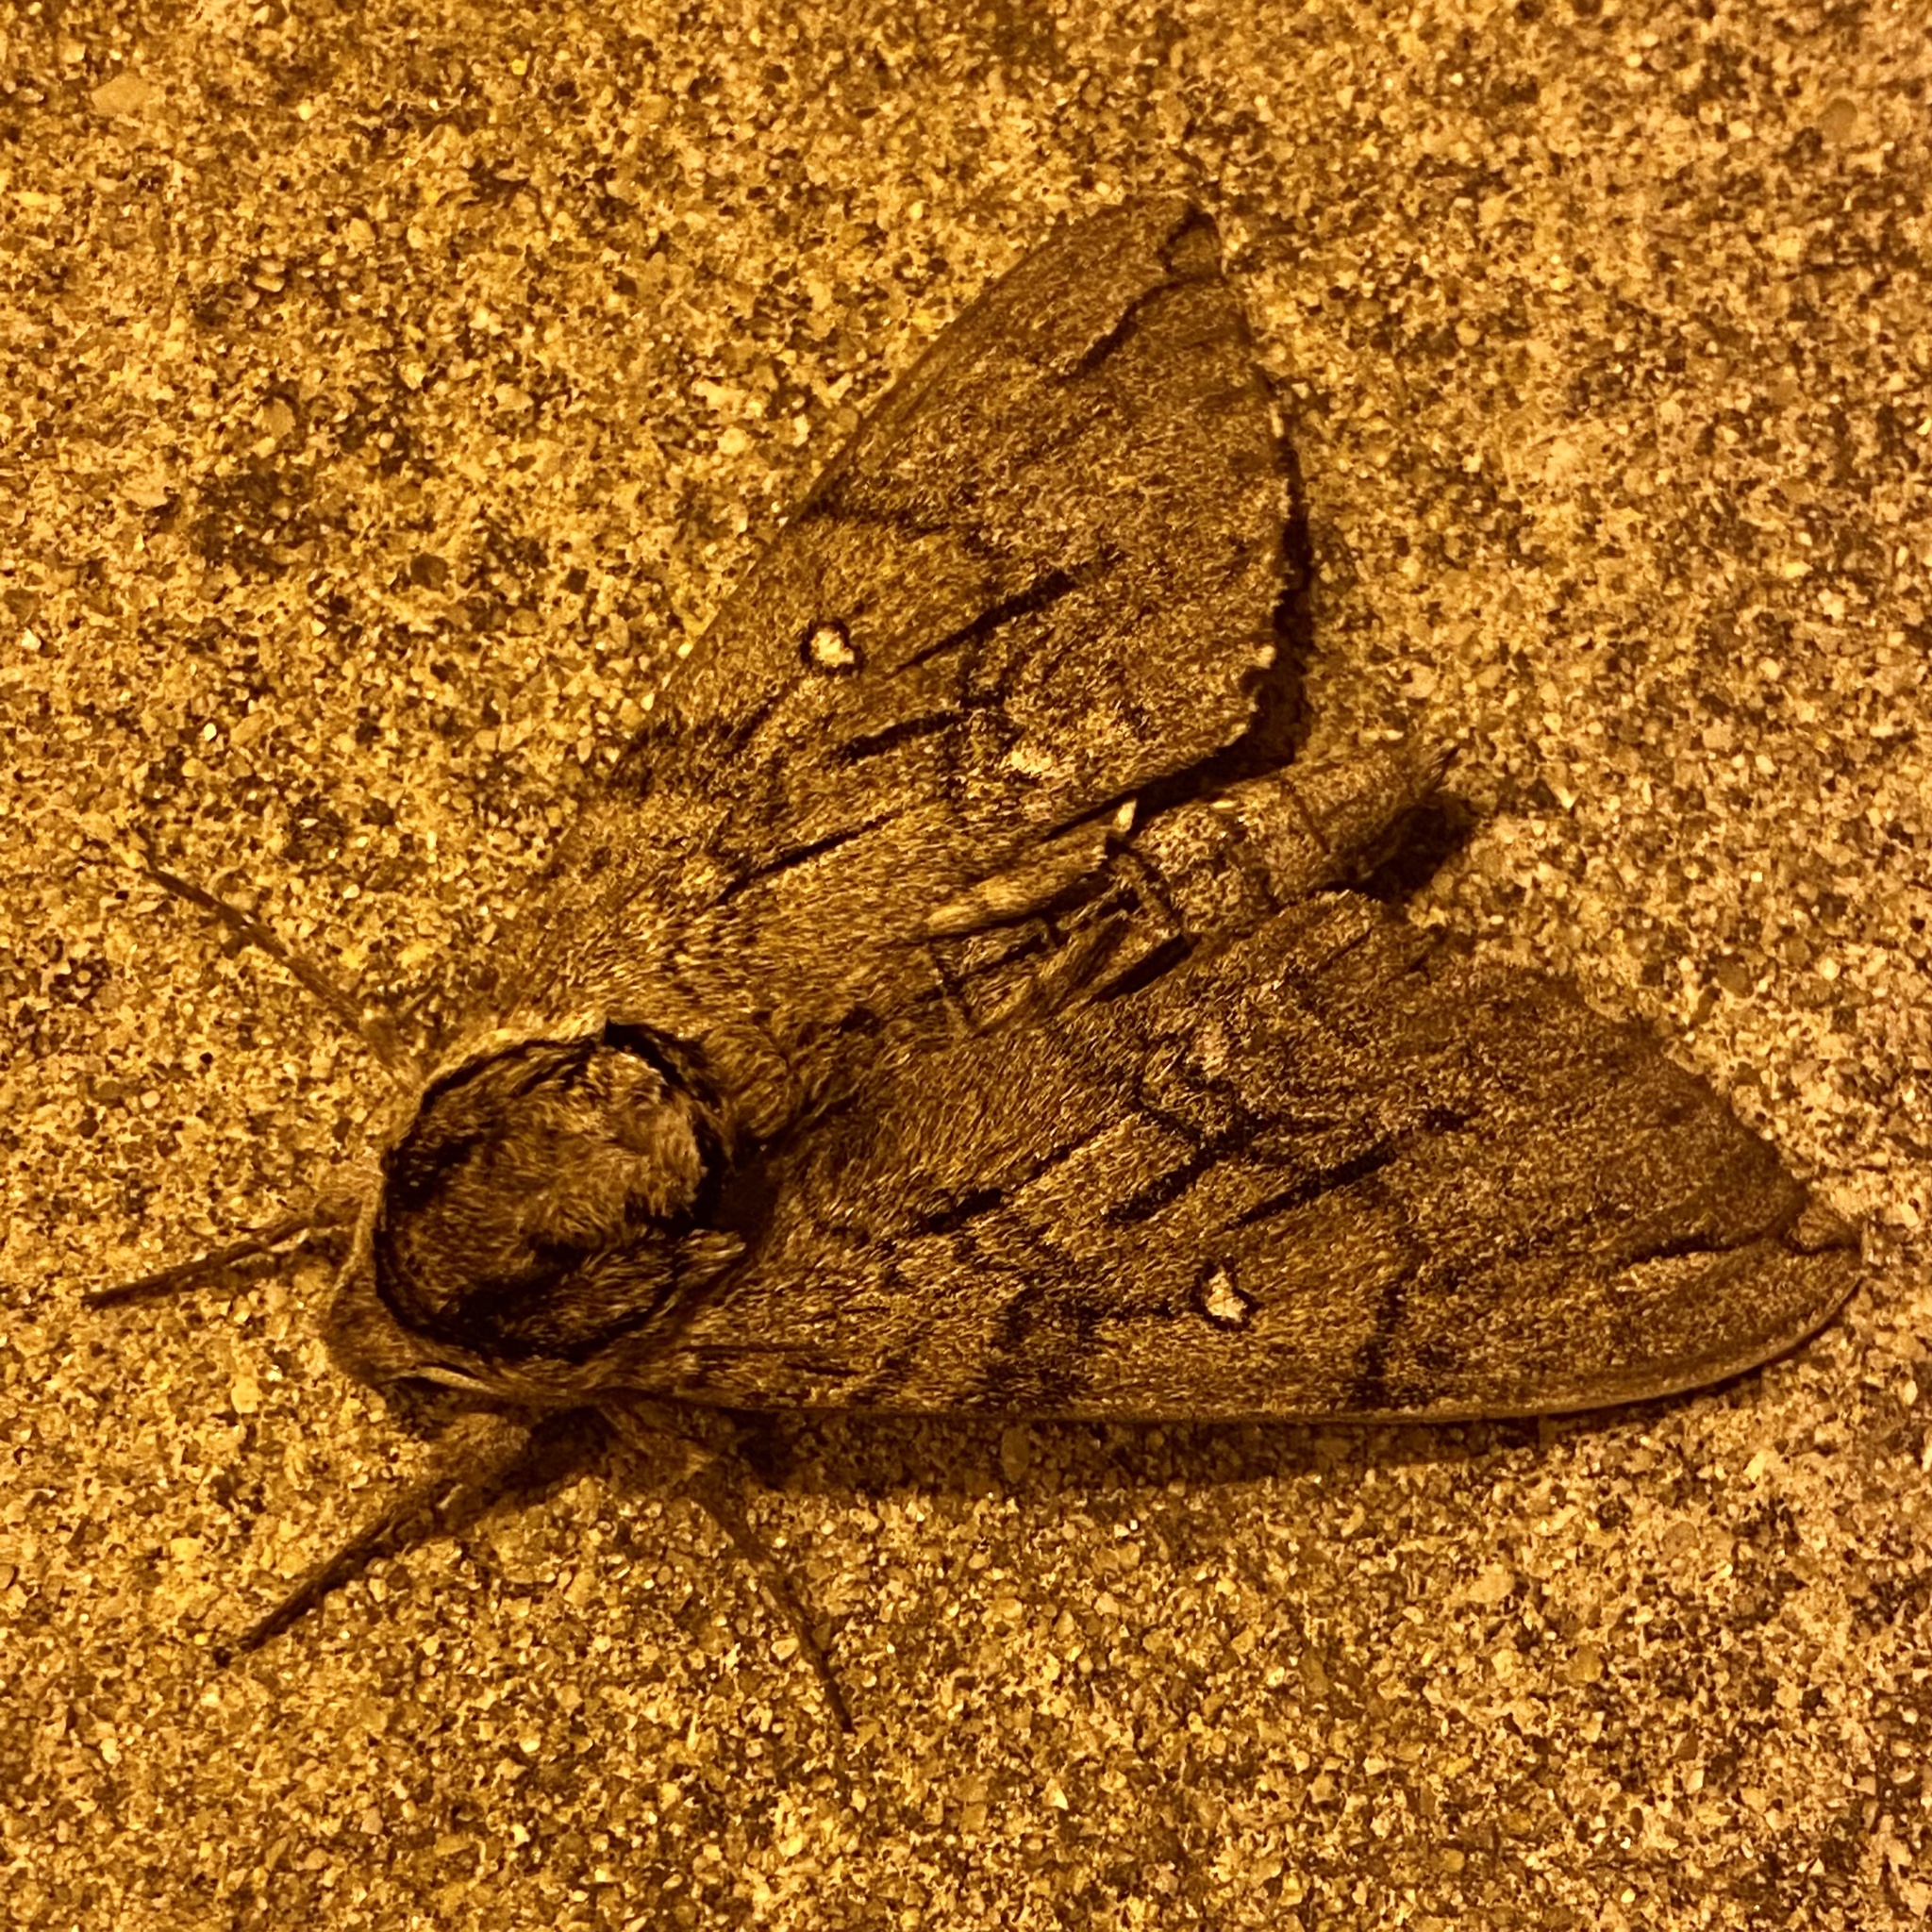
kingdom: Animalia
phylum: Arthropoda
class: Insecta
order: Lepidoptera
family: Sphingidae
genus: Ceratomia
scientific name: Ceratomia undulosa
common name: Waved sphinx
